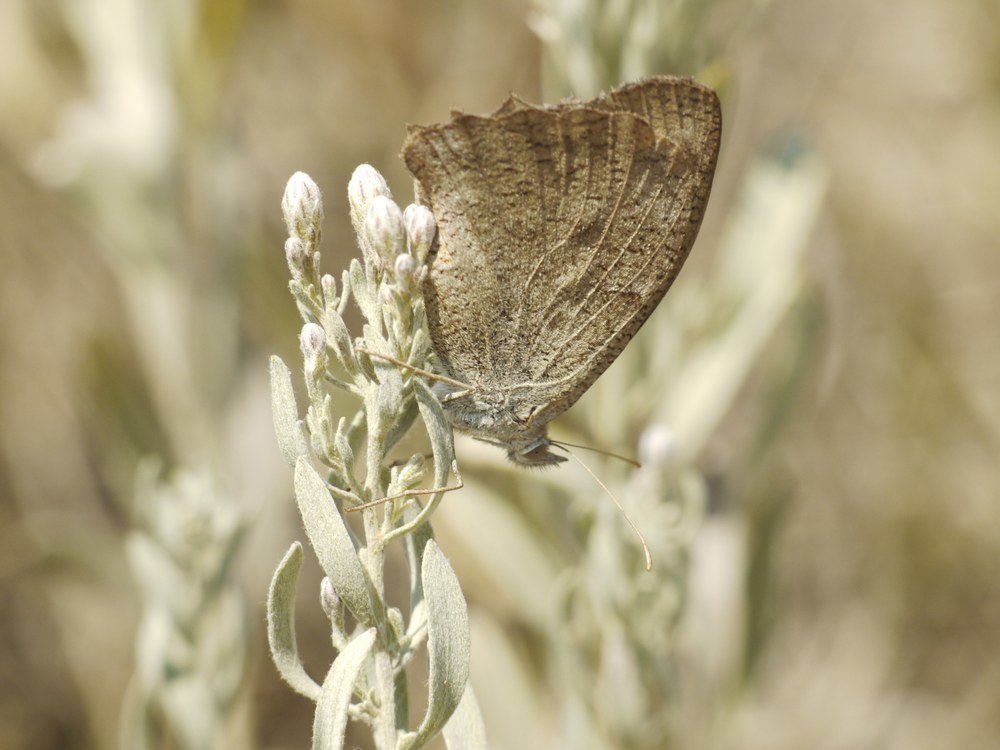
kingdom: Animalia
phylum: Arthropoda
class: Insecta
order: Lepidoptera
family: Nymphalidae
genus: Hyponephele
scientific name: Hyponephele lupinus
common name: Oriental meadow brown
